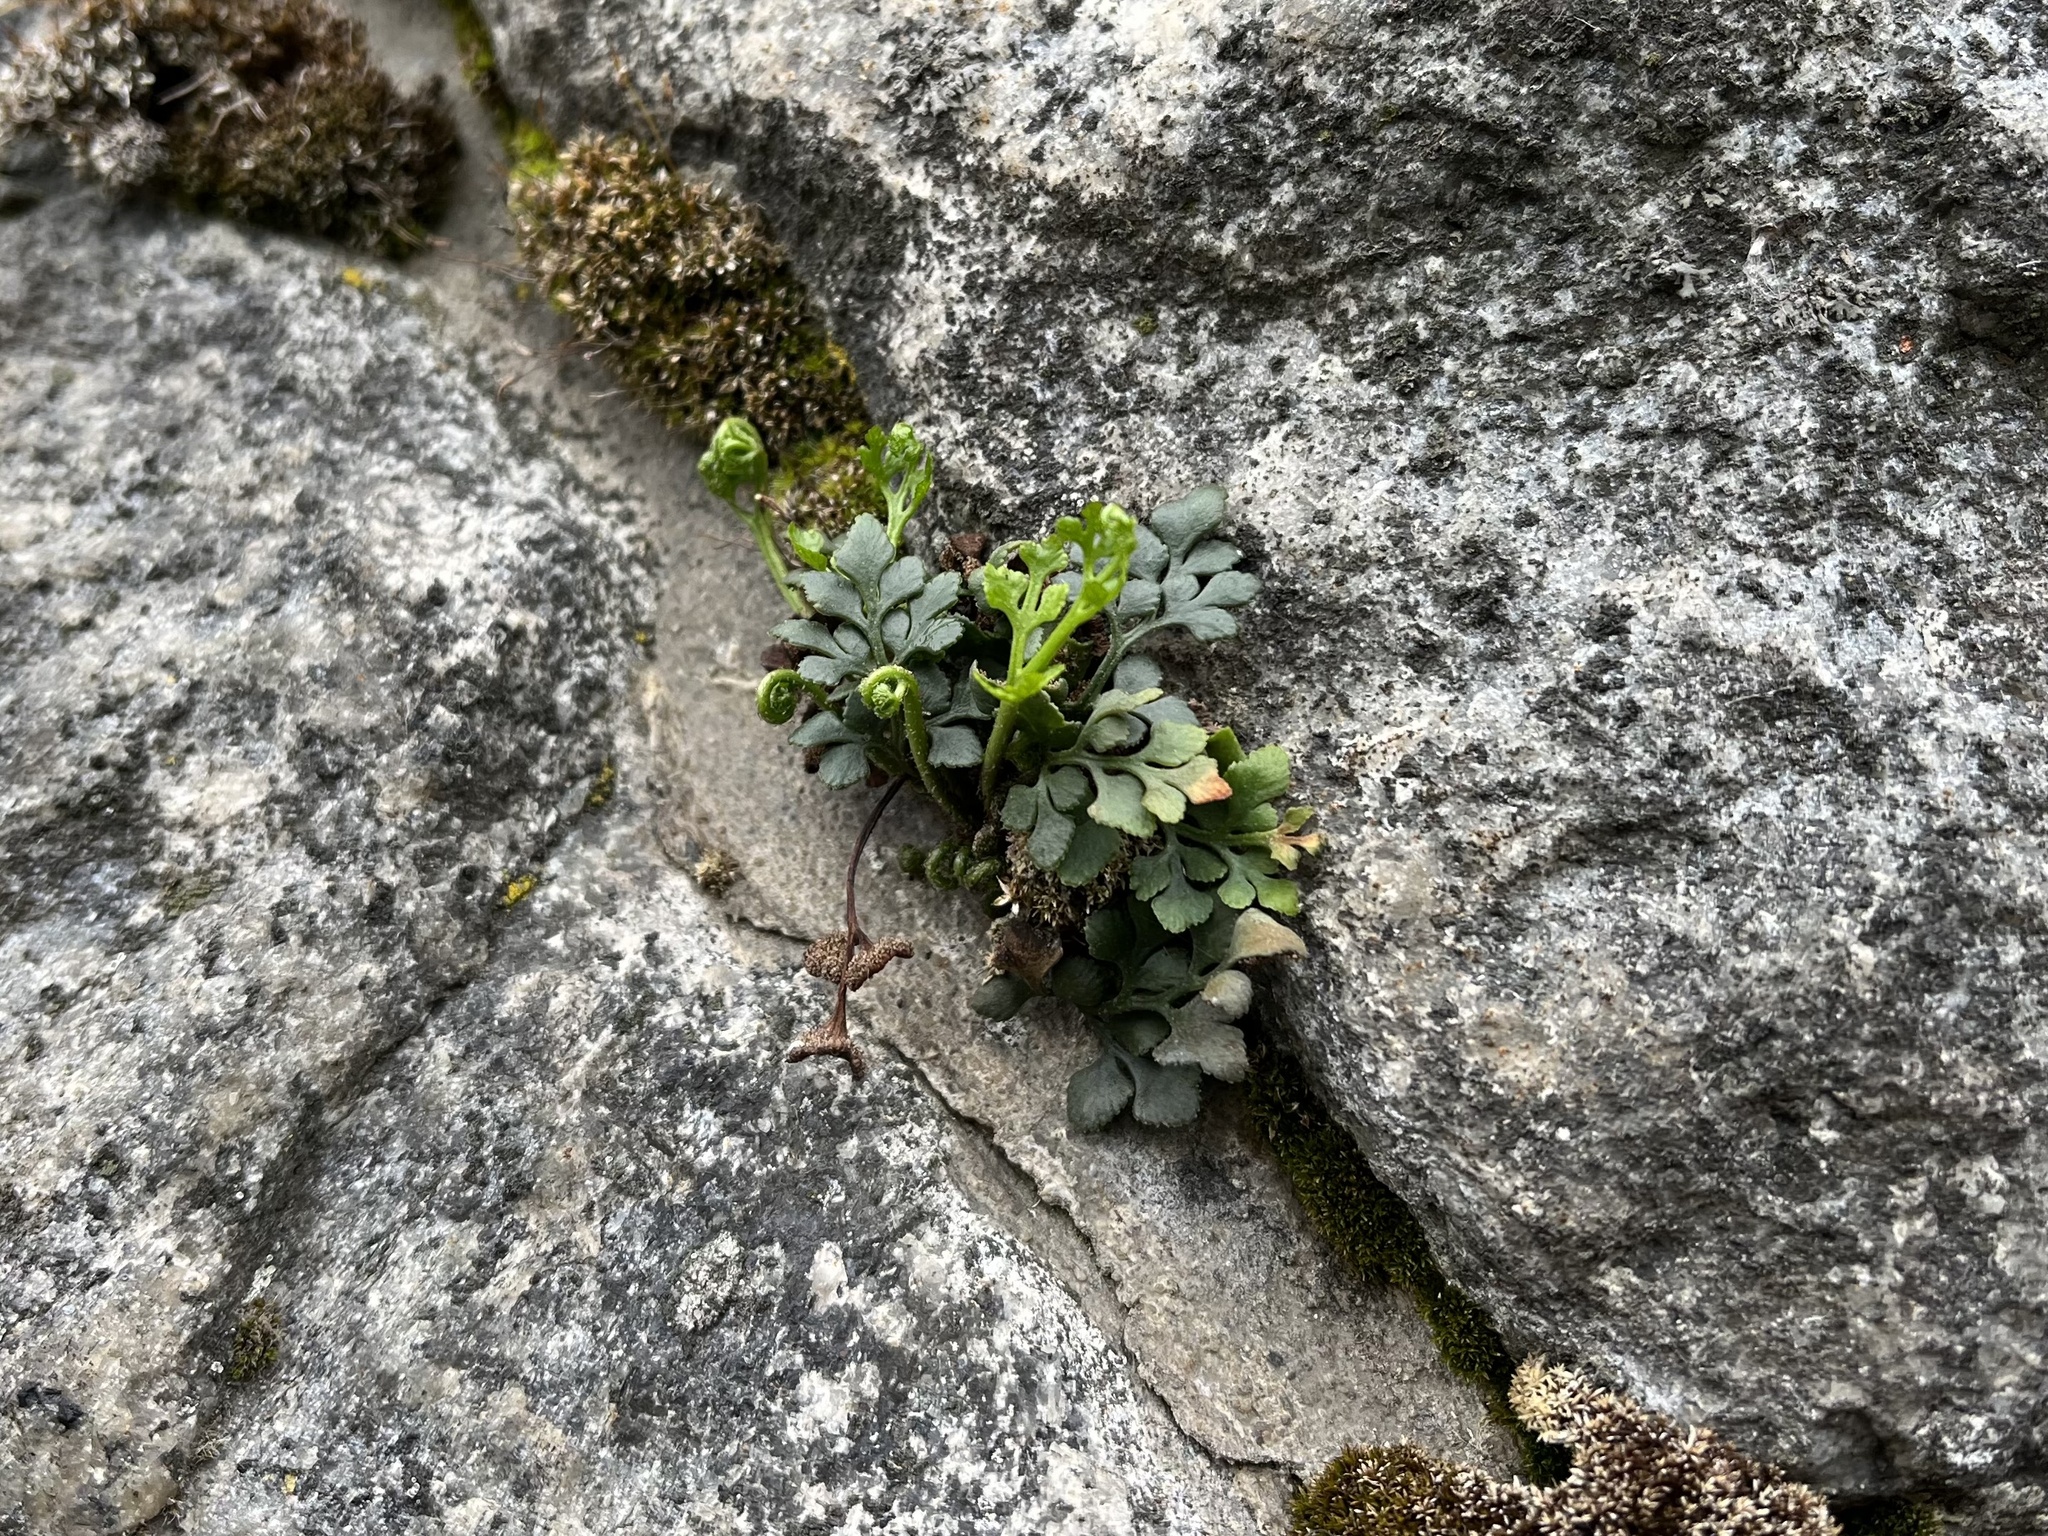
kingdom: Plantae
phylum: Tracheophyta
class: Polypodiopsida
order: Polypodiales
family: Aspleniaceae
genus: Asplenium
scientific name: Asplenium ruta-muraria
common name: Wall-rue
